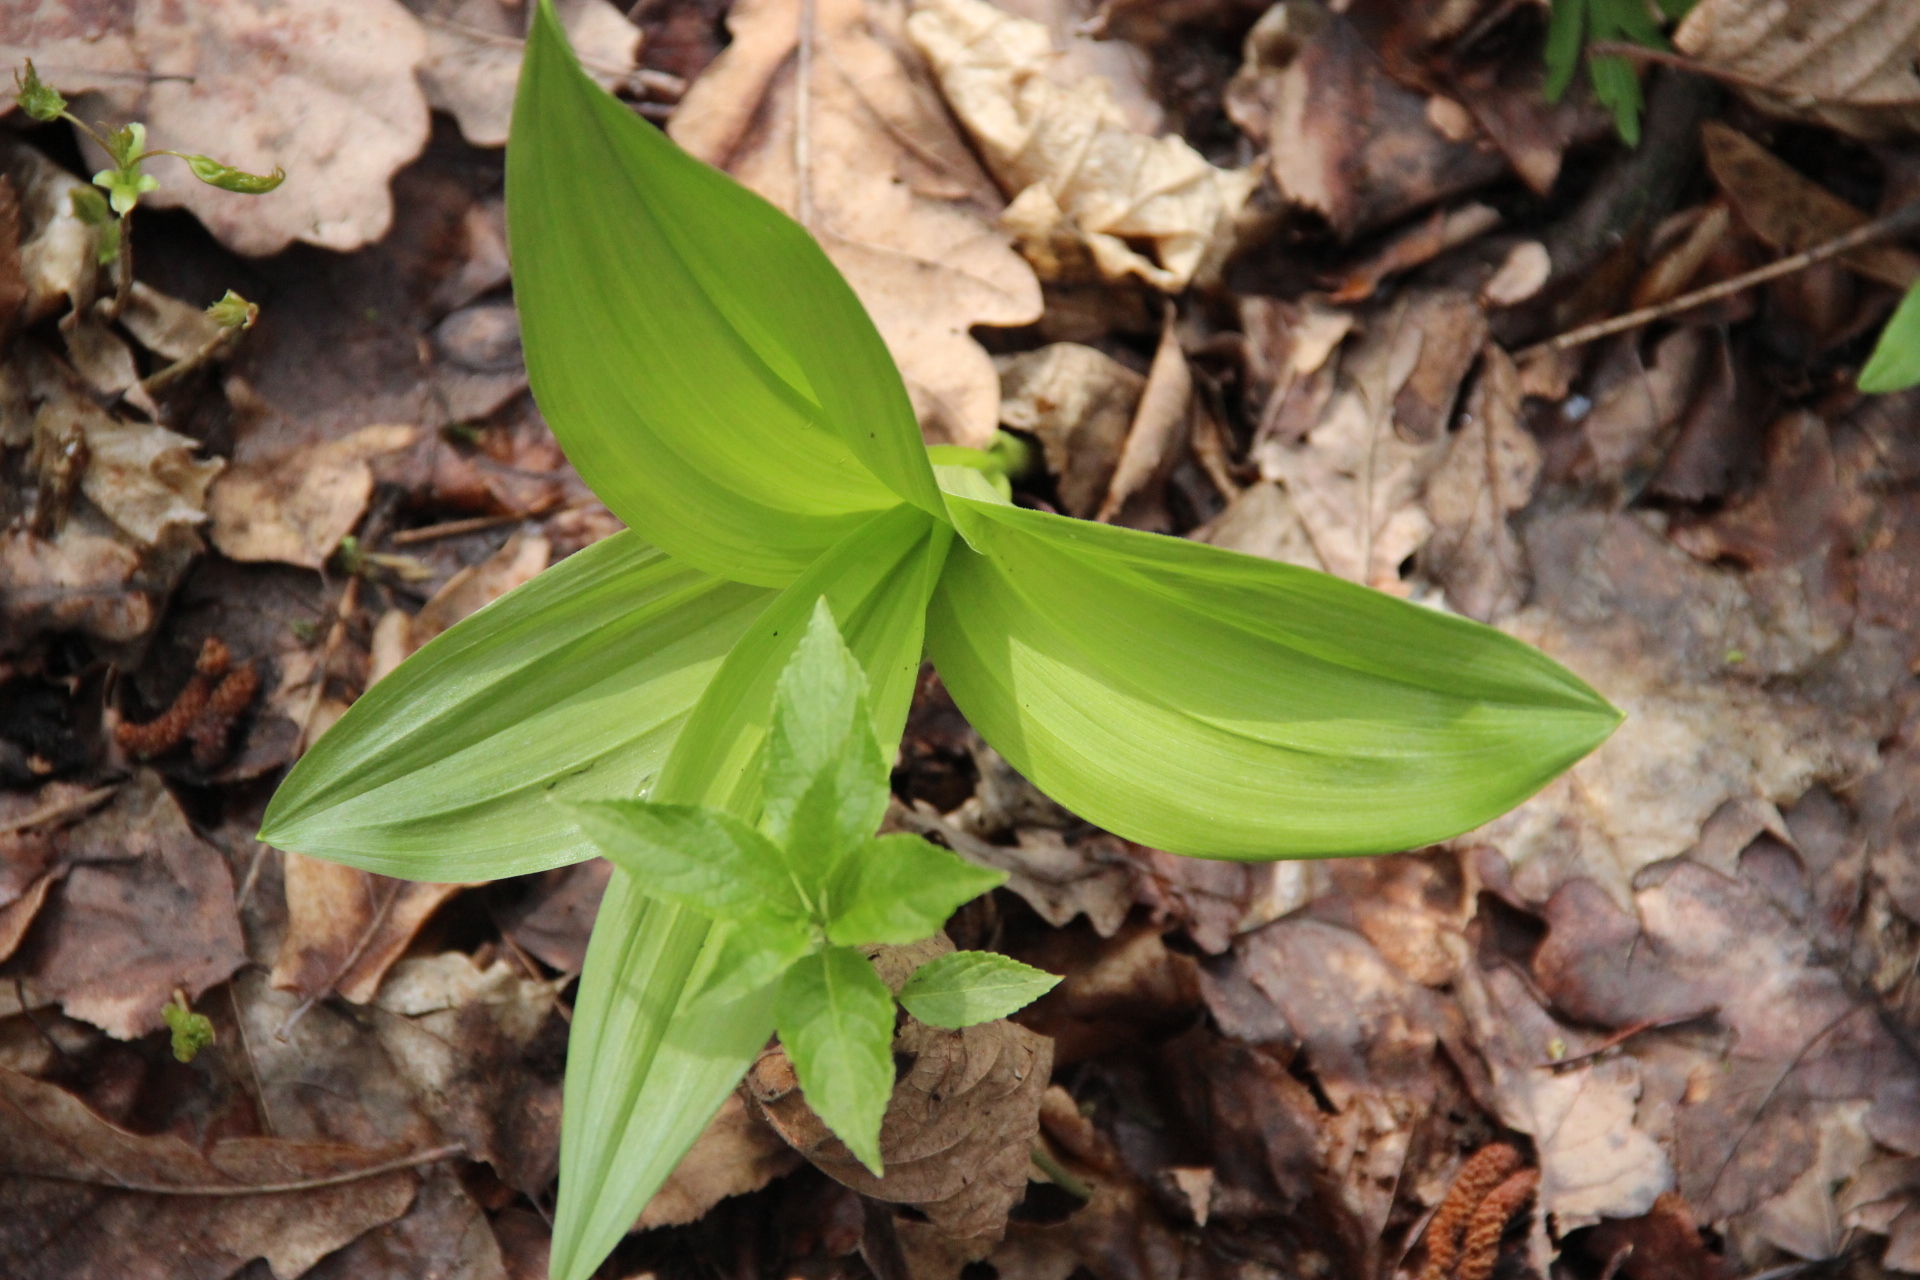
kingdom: Plantae
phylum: Tracheophyta
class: Liliopsida
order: Liliales
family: Melanthiaceae
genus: Veratrum
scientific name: Veratrum lobelianum
